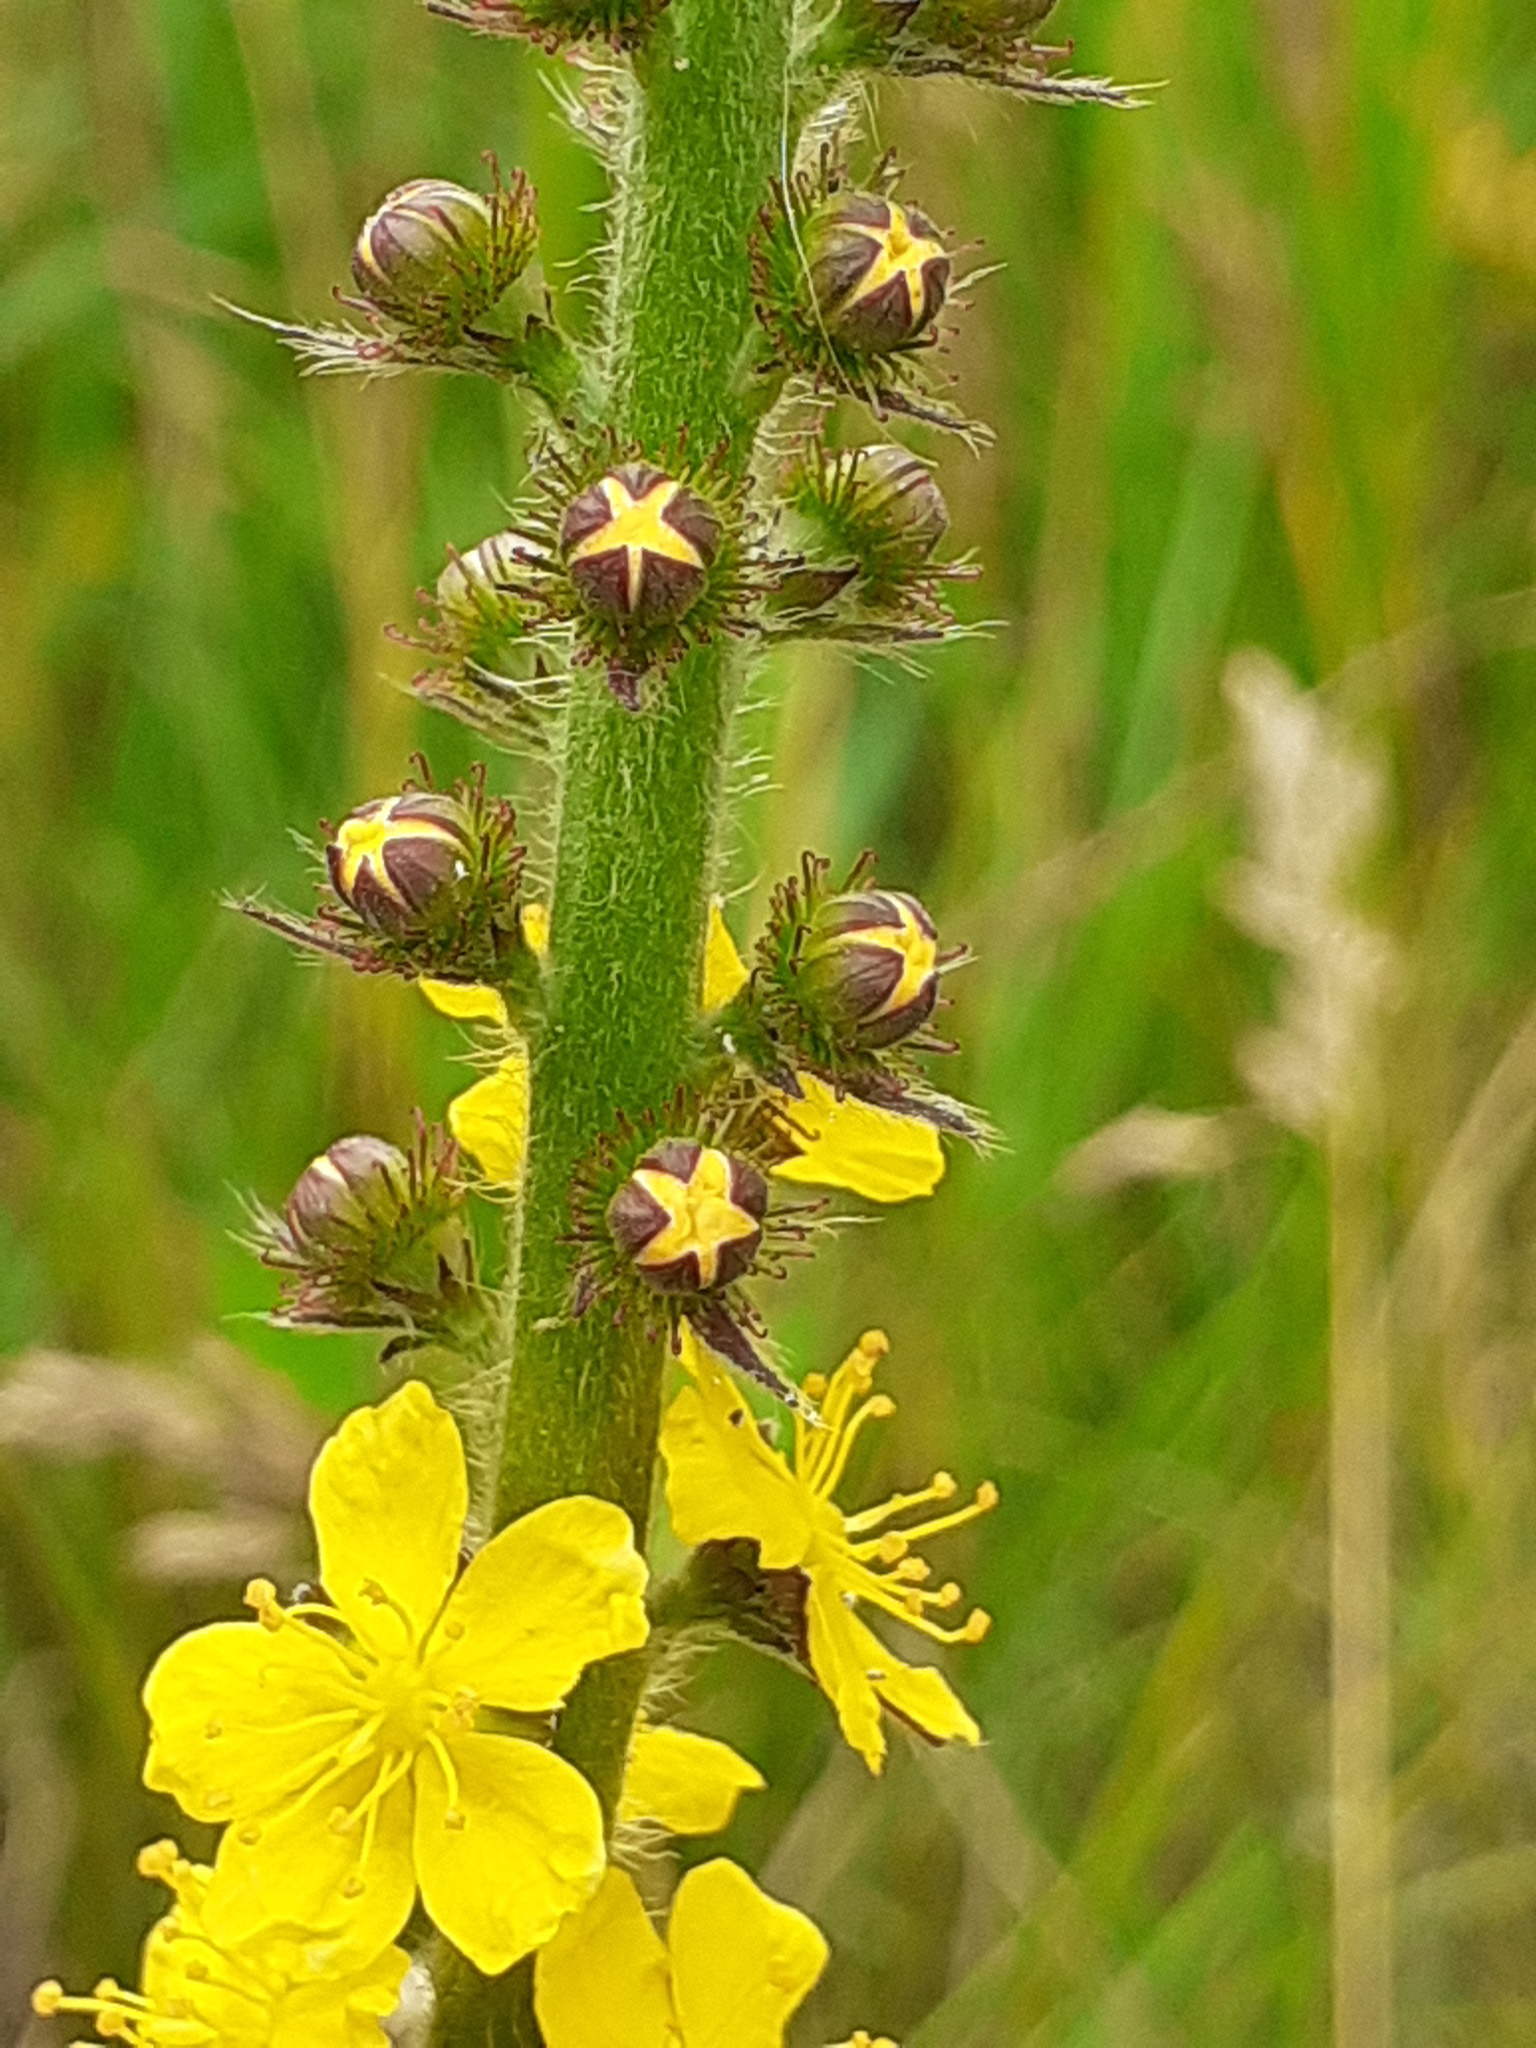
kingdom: Plantae
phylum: Tracheophyta
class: Magnoliopsida
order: Rosales
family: Rosaceae
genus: Agrimonia
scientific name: Agrimonia eupatoria
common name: Agrimony
